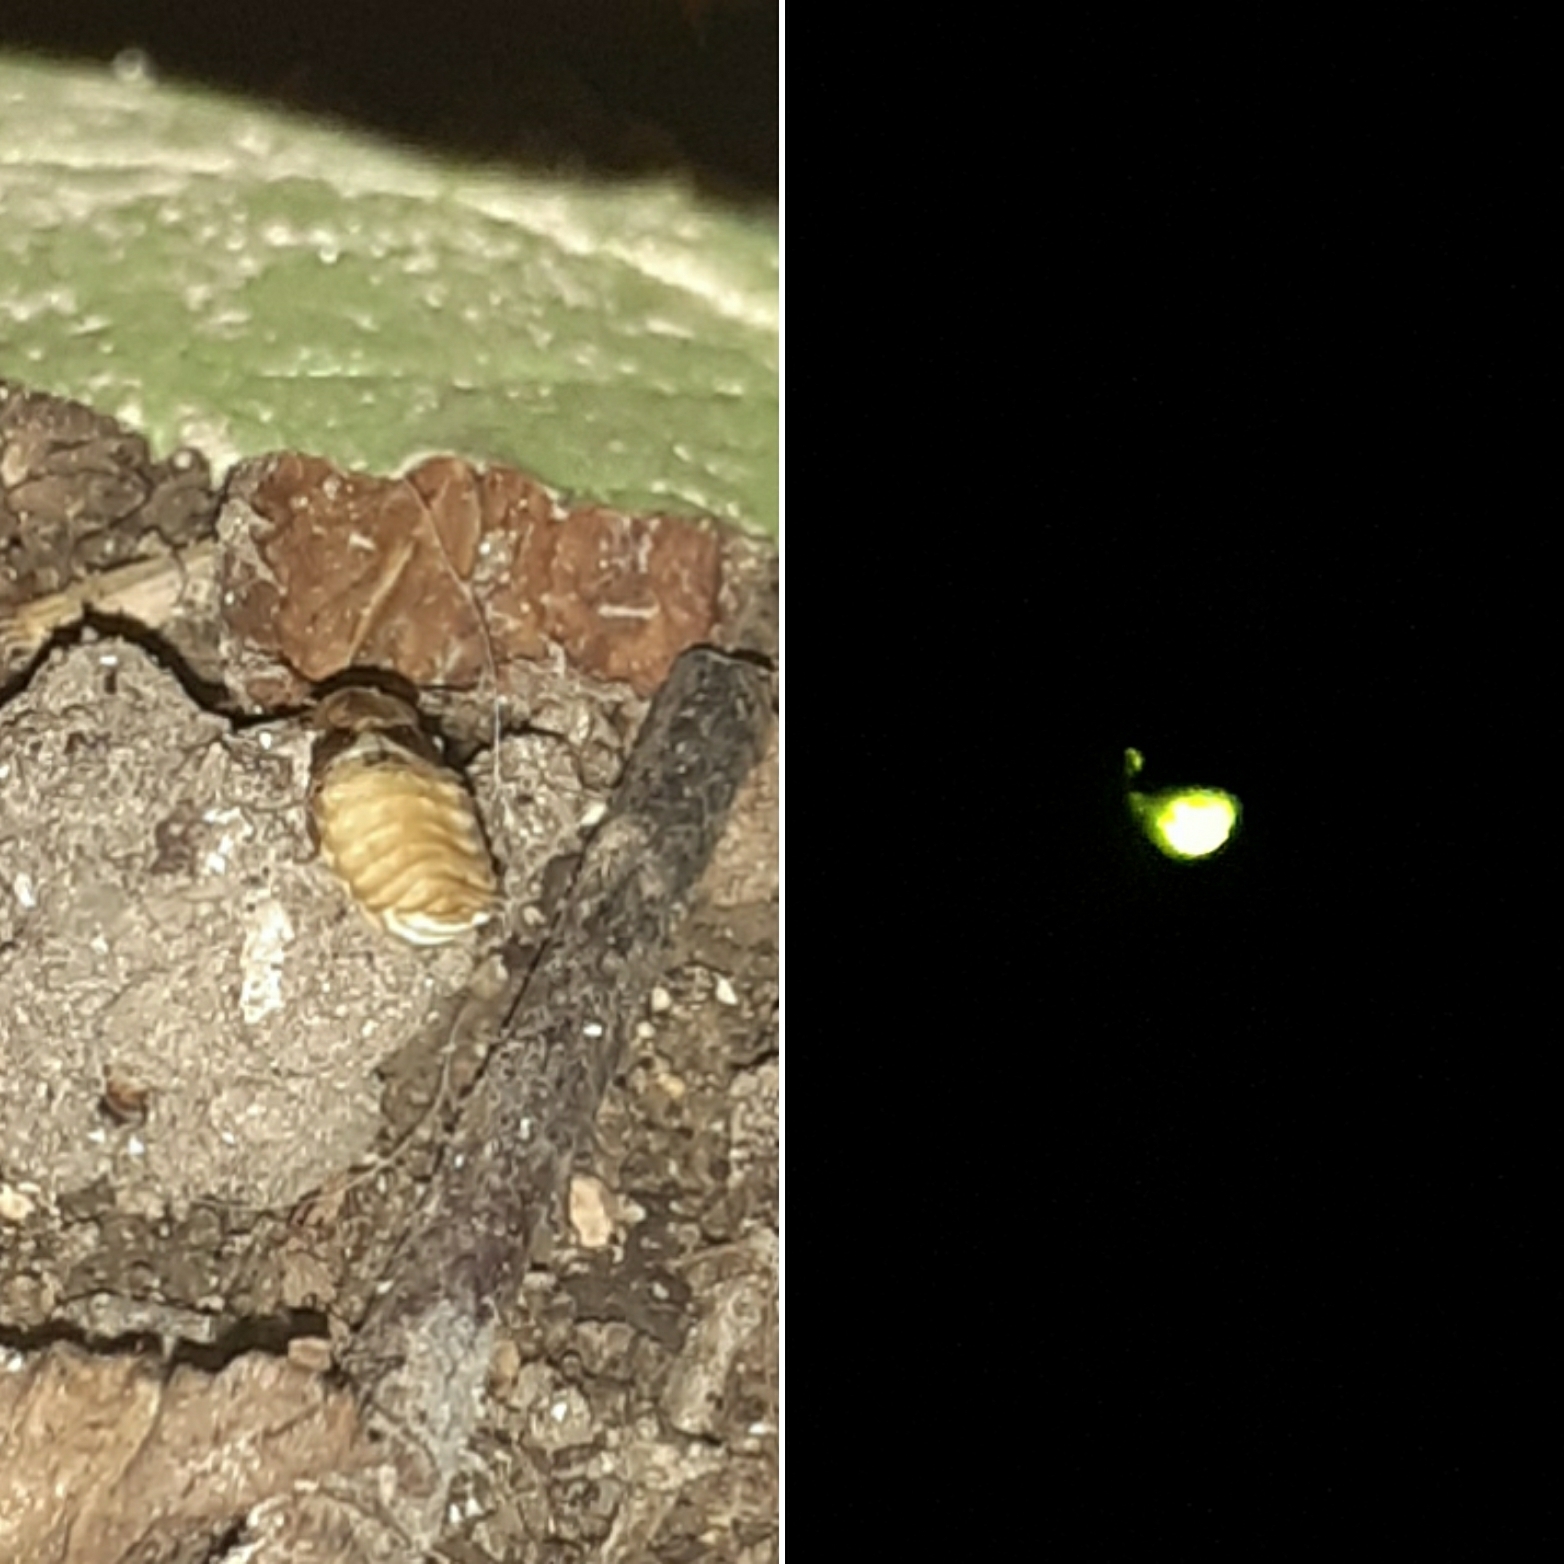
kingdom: Animalia
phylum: Arthropoda
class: Insecta
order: Coleoptera
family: Lampyridae
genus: Lamprohiza
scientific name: Lamprohiza mulsantii
